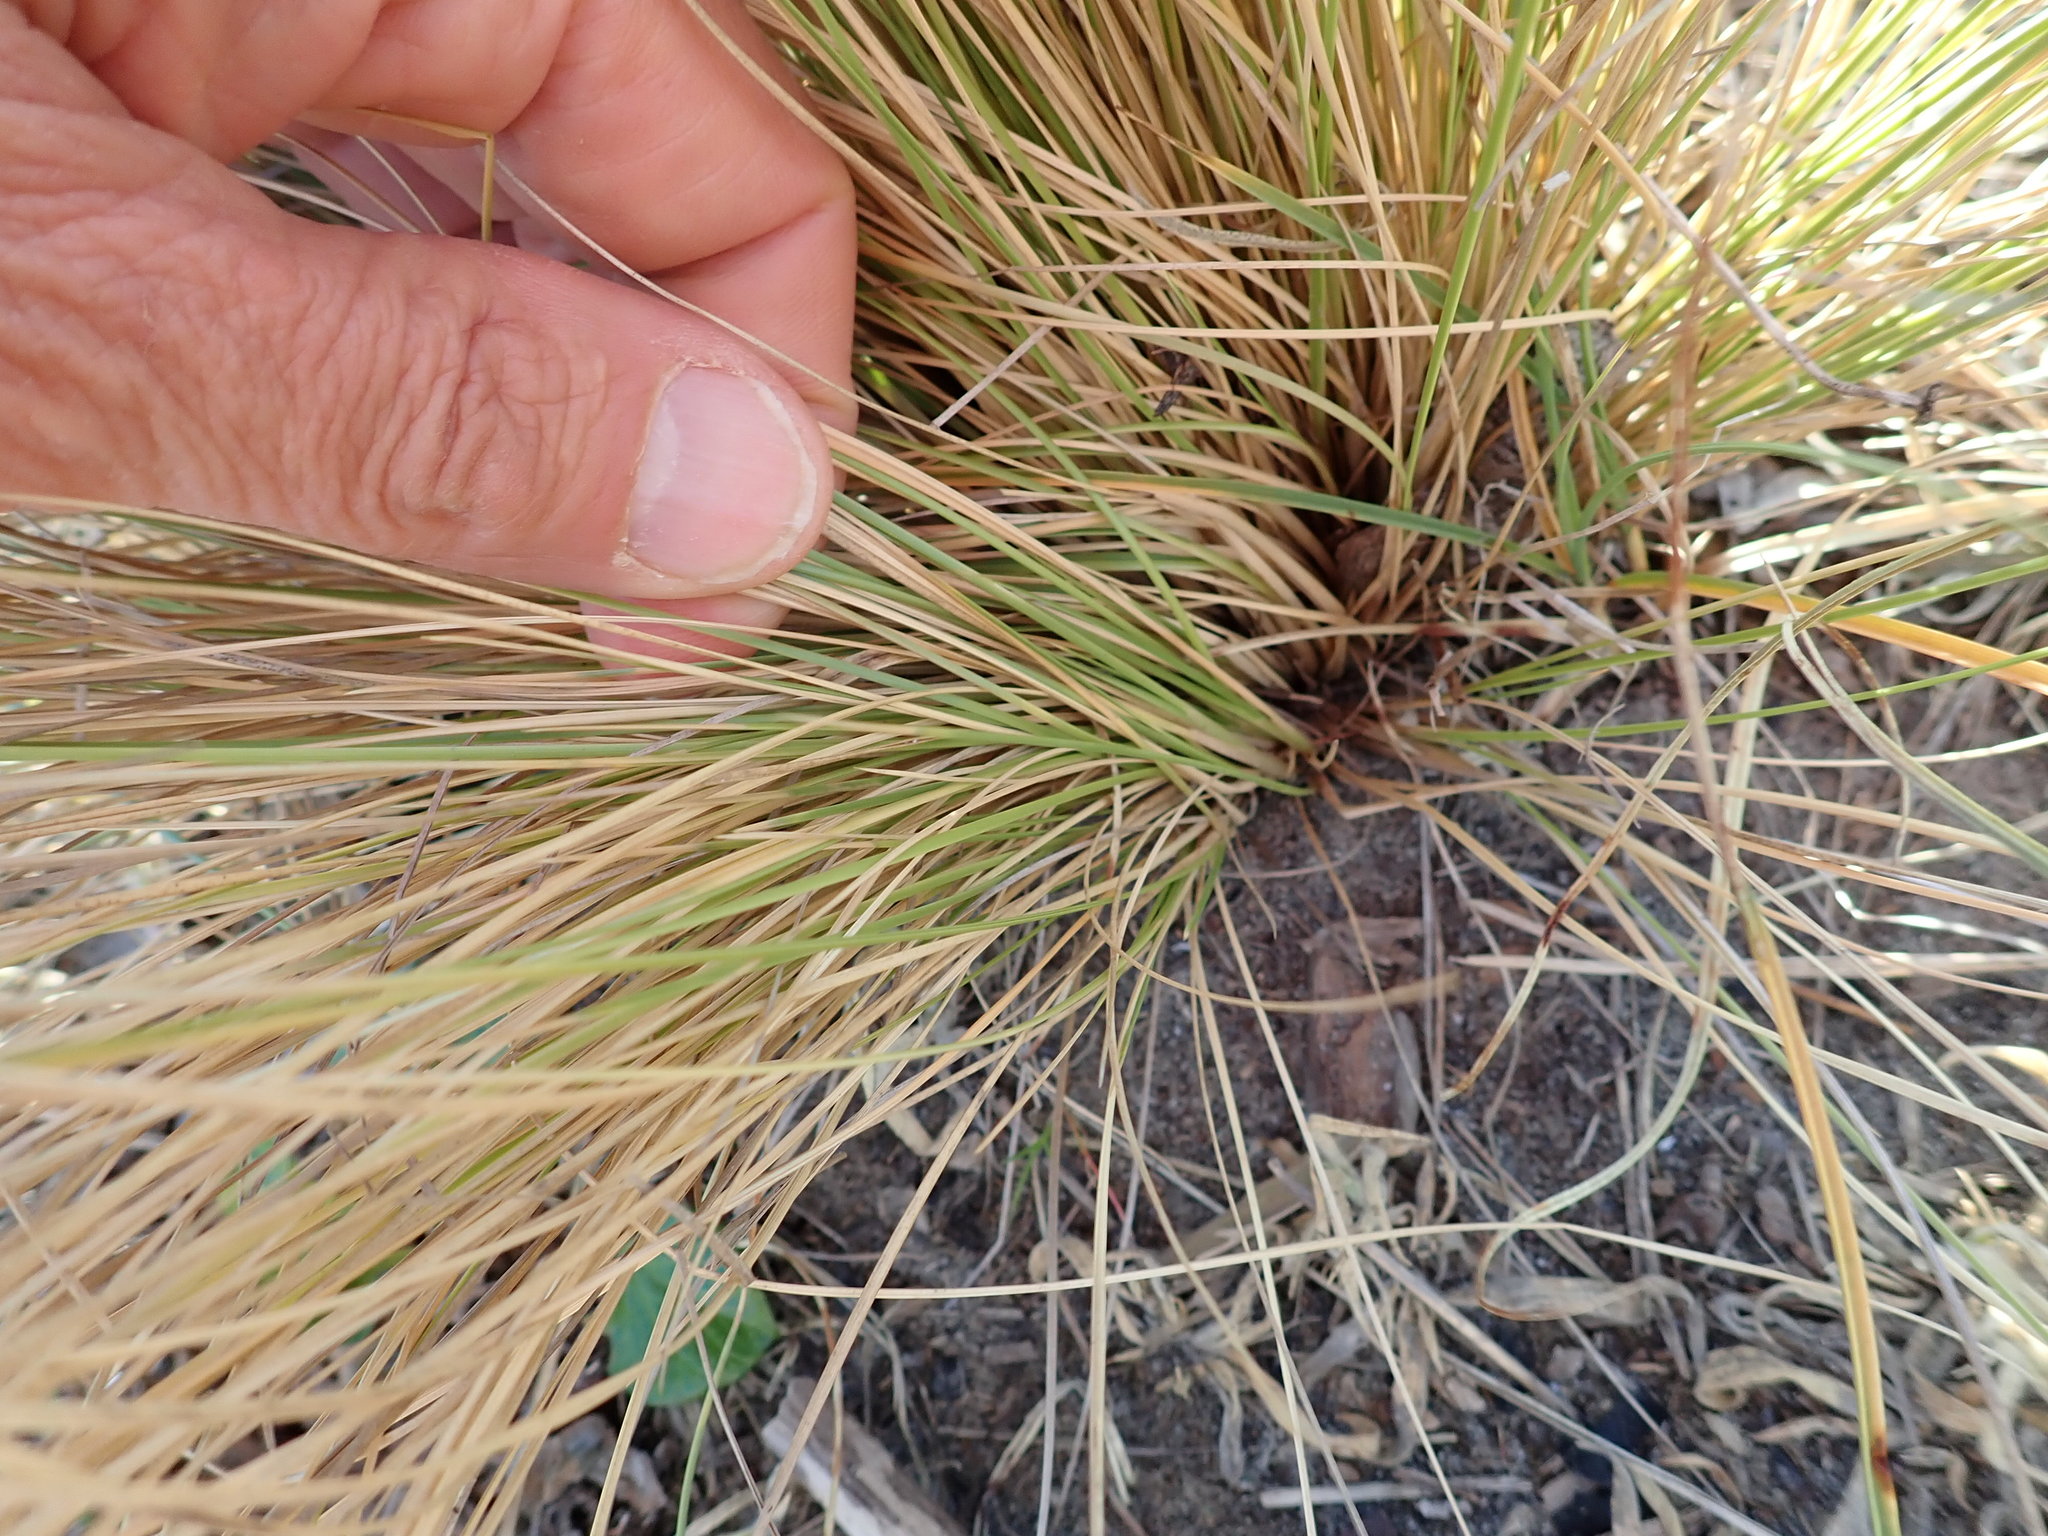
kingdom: Plantae
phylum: Tracheophyta
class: Liliopsida
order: Poales
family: Poaceae
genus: Poa
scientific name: Poa billardierei
